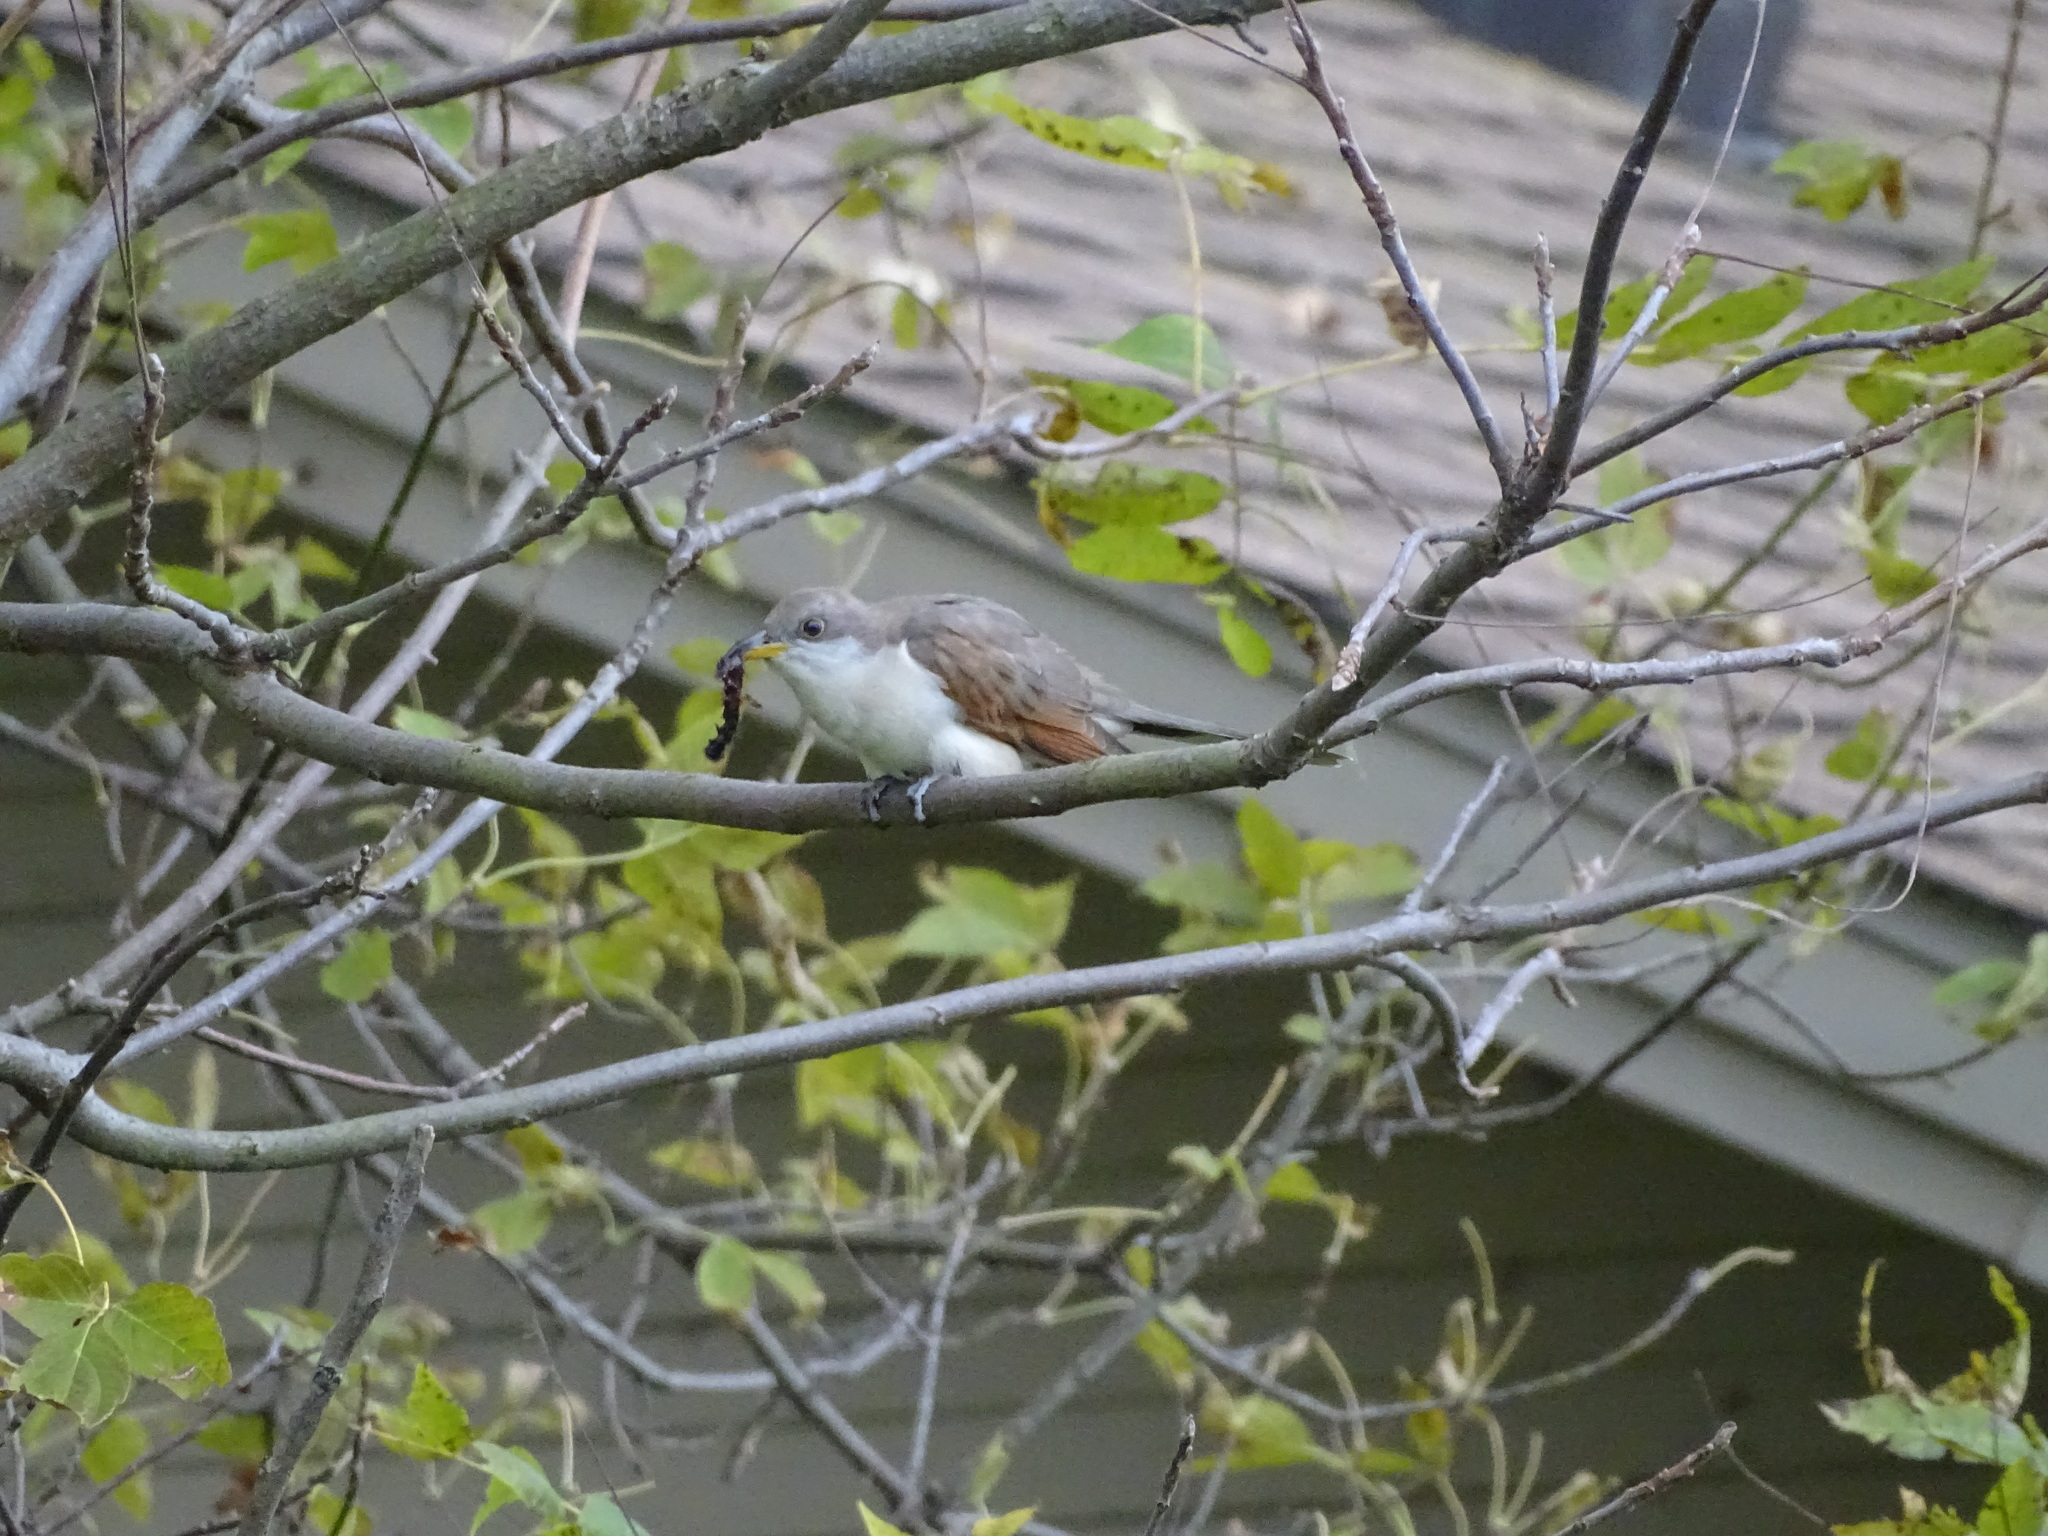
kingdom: Animalia
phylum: Chordata
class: Aves
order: Cuculiformes
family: Cuculidae
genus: Coccyzus
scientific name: Coccyzus americanus
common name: Yellow-billed cuckoo
